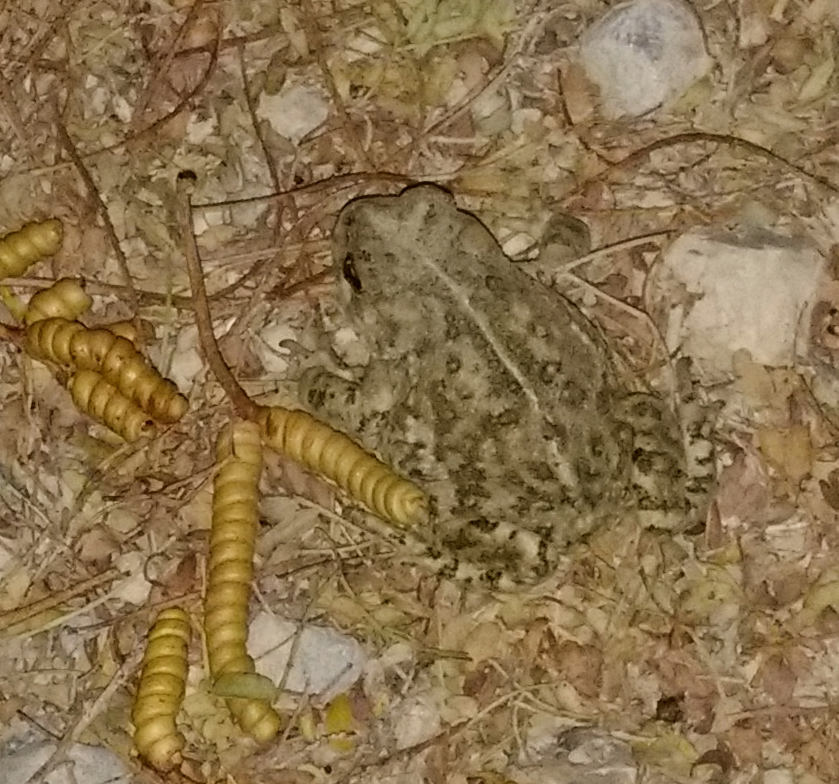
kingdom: Plantae
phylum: Tracheophyta
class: Magnoliopsida
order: Fabales
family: Fabaceae
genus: Prosopis
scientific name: Prosopis pubescens
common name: Screw-bean
